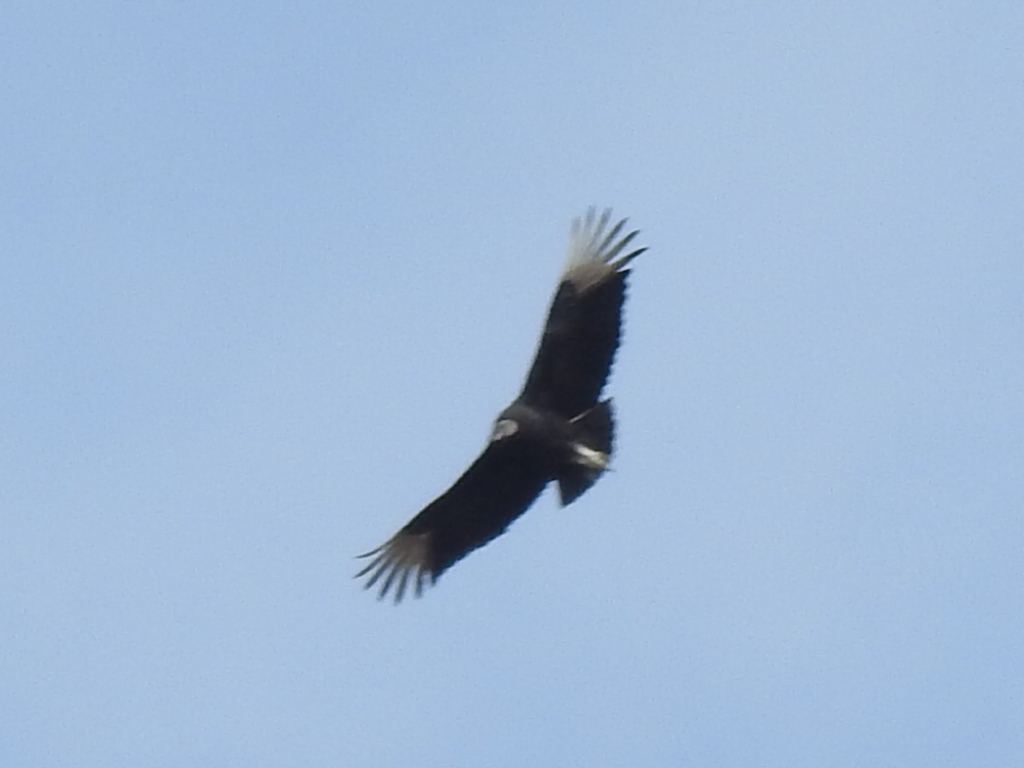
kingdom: Animalia
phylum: Chordata
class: Aves
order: Accipitriformes
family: Cathartidae
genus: Coragyps
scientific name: Coragyps atratus
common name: Black vulture
